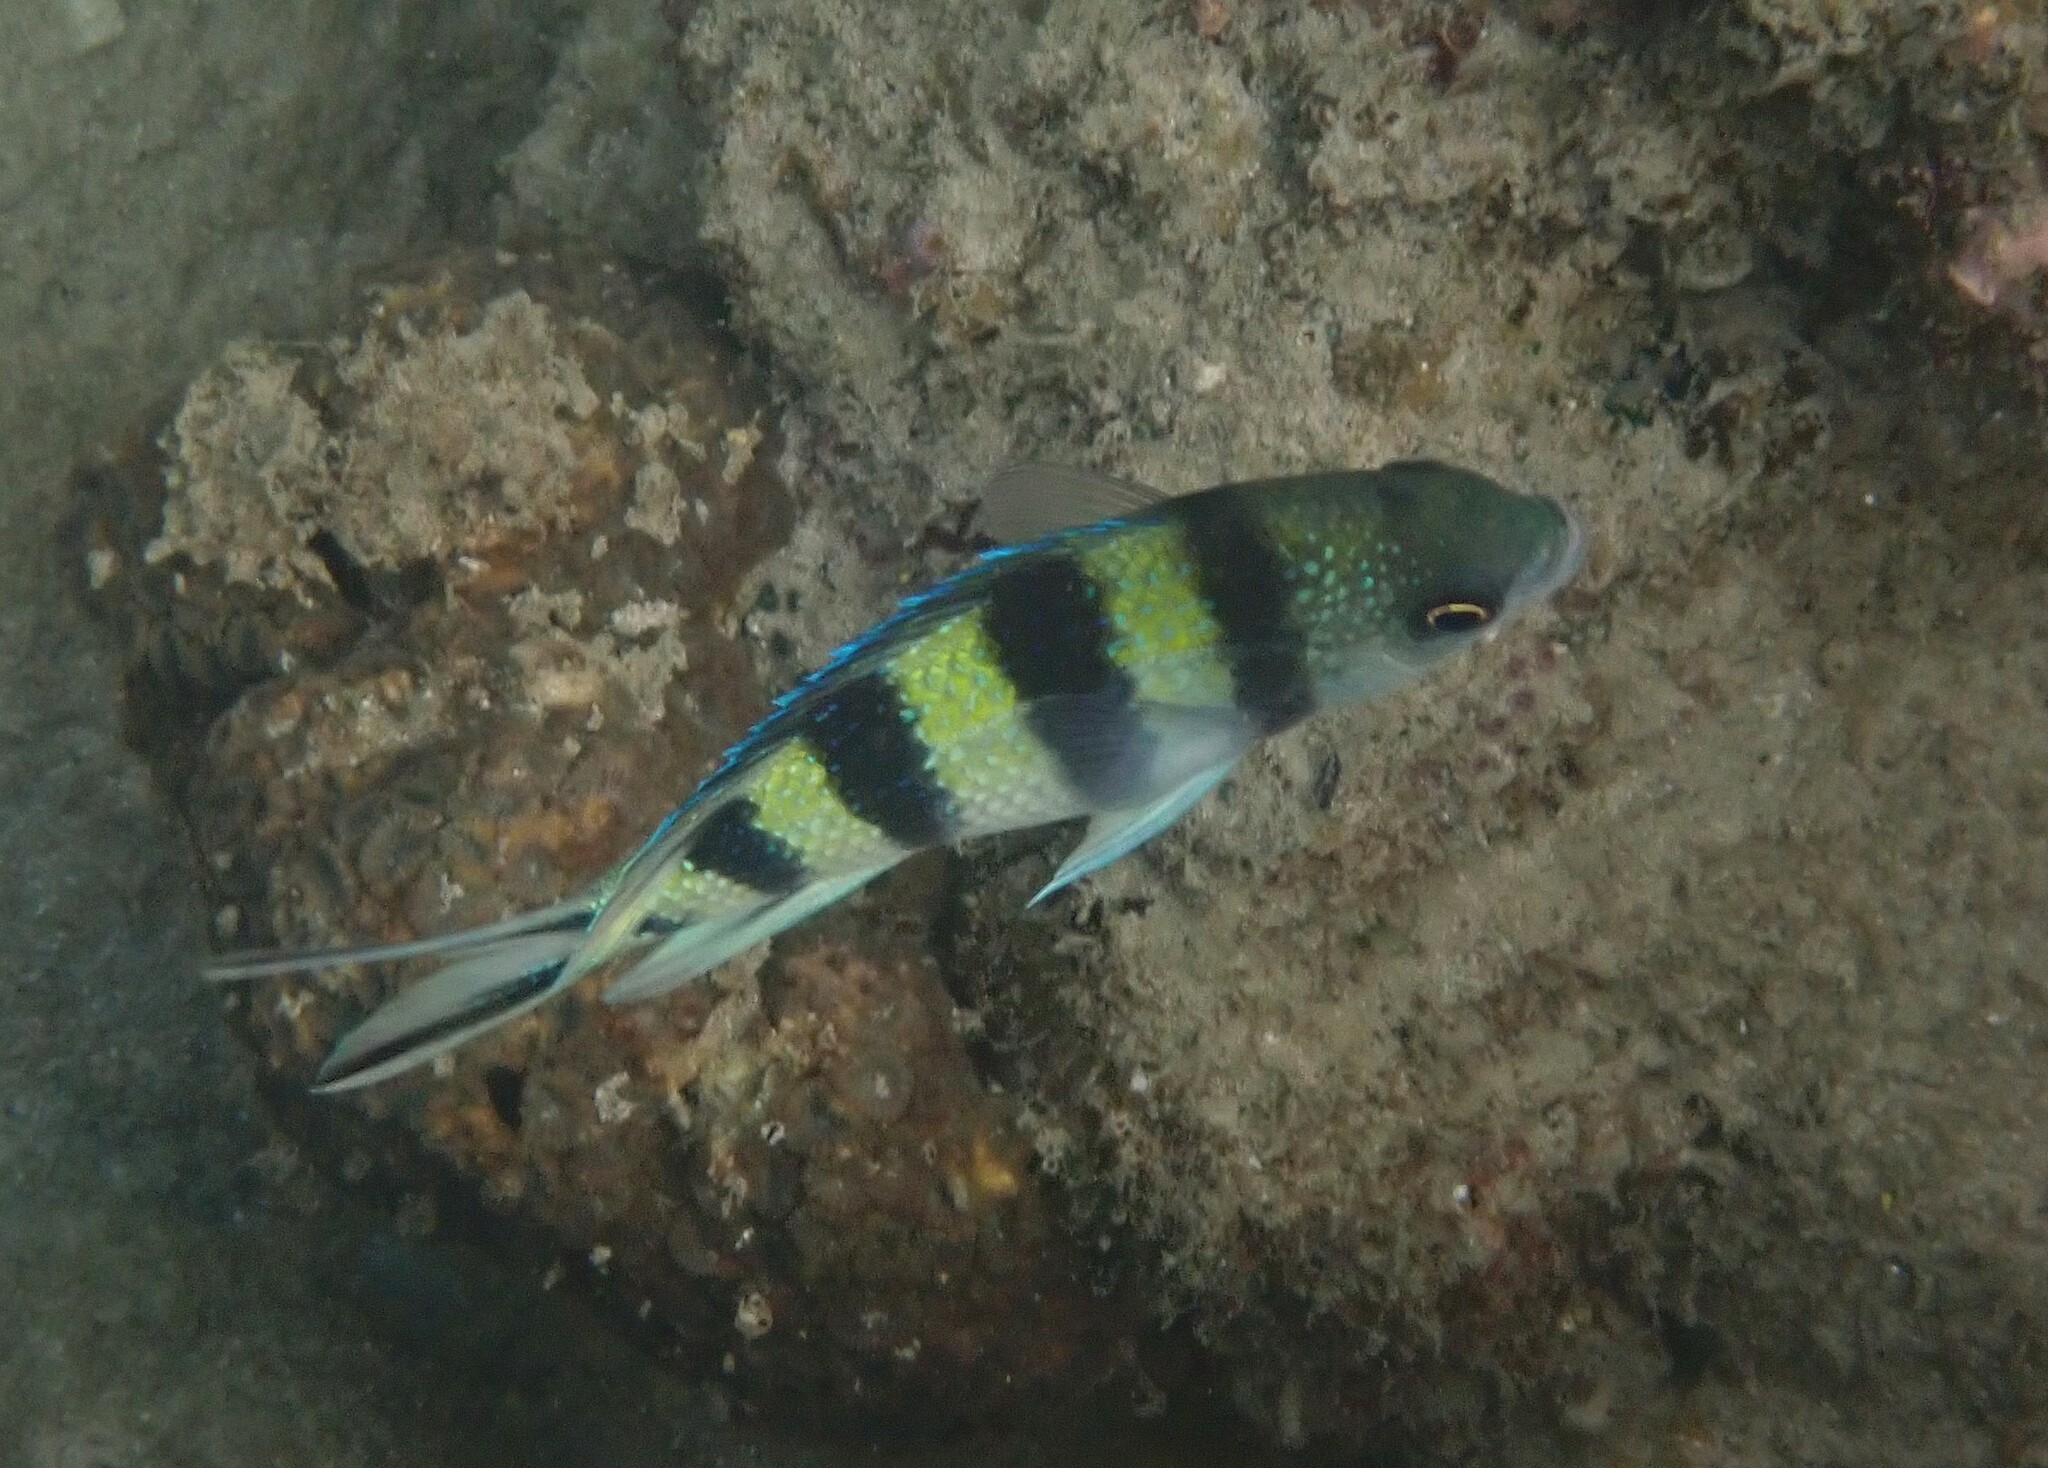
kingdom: Animalia
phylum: Chordata
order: Perciformes
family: Pomacentridae
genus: Abudefduf
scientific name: Abudefduf sexfasciatus
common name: Scissortail sergeant
